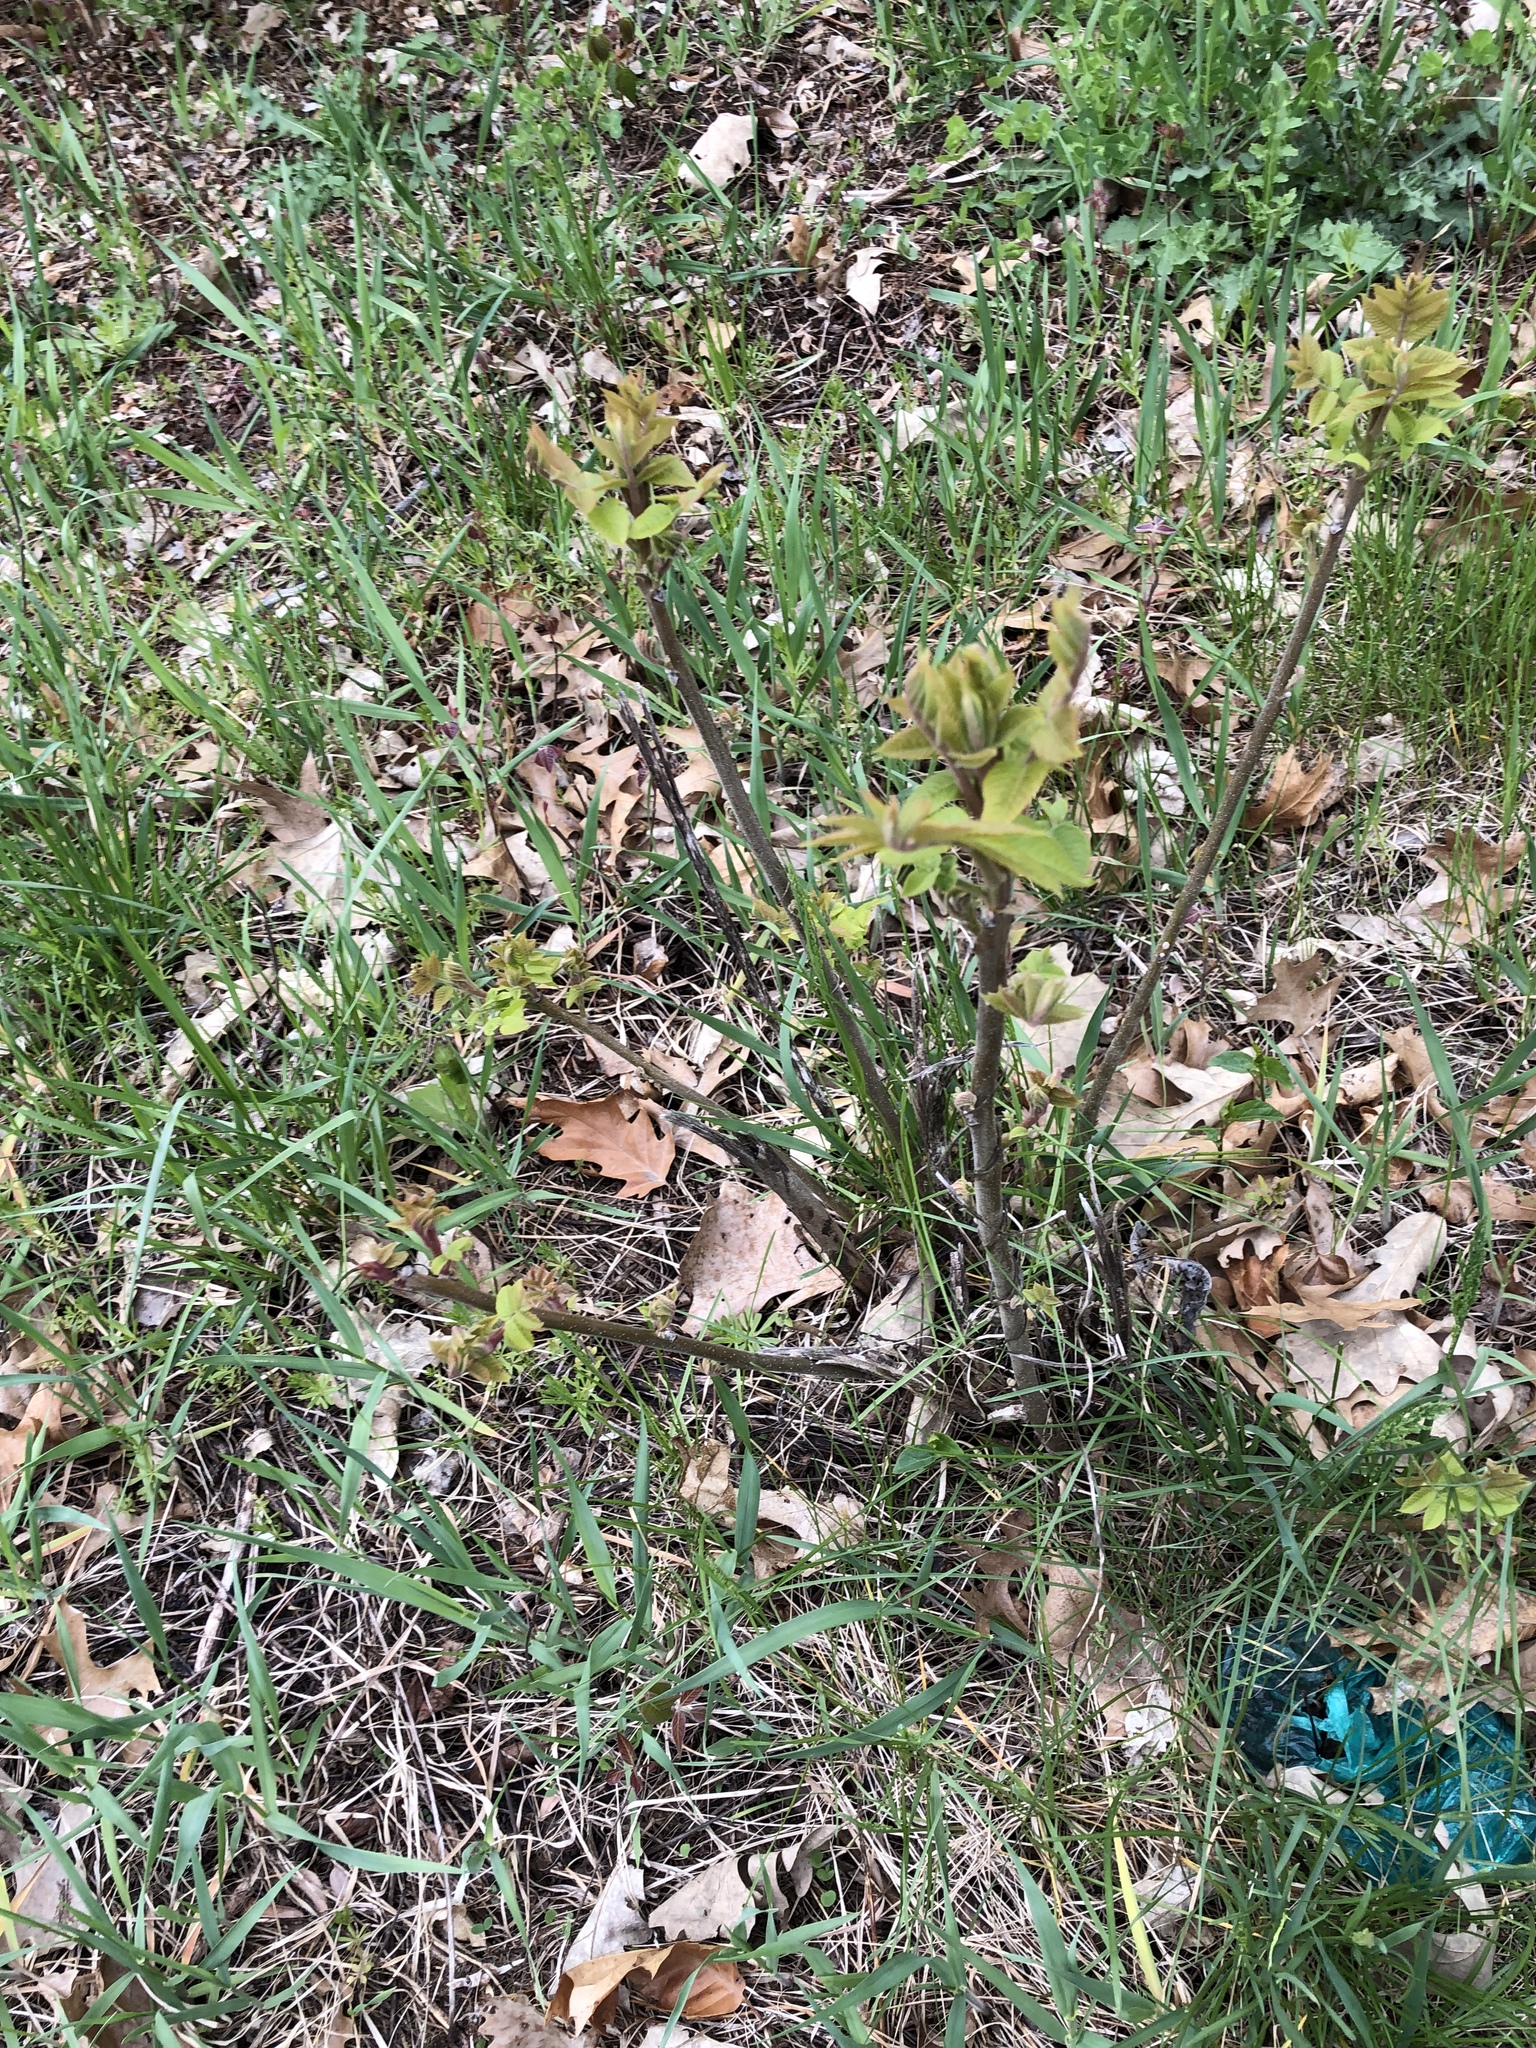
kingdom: Plantae
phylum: Tracheophyta
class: Magnoliopsida
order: Sapindales
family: Anacardiaceae
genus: Rhus
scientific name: Rhus typhina
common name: Staghorn sumac
